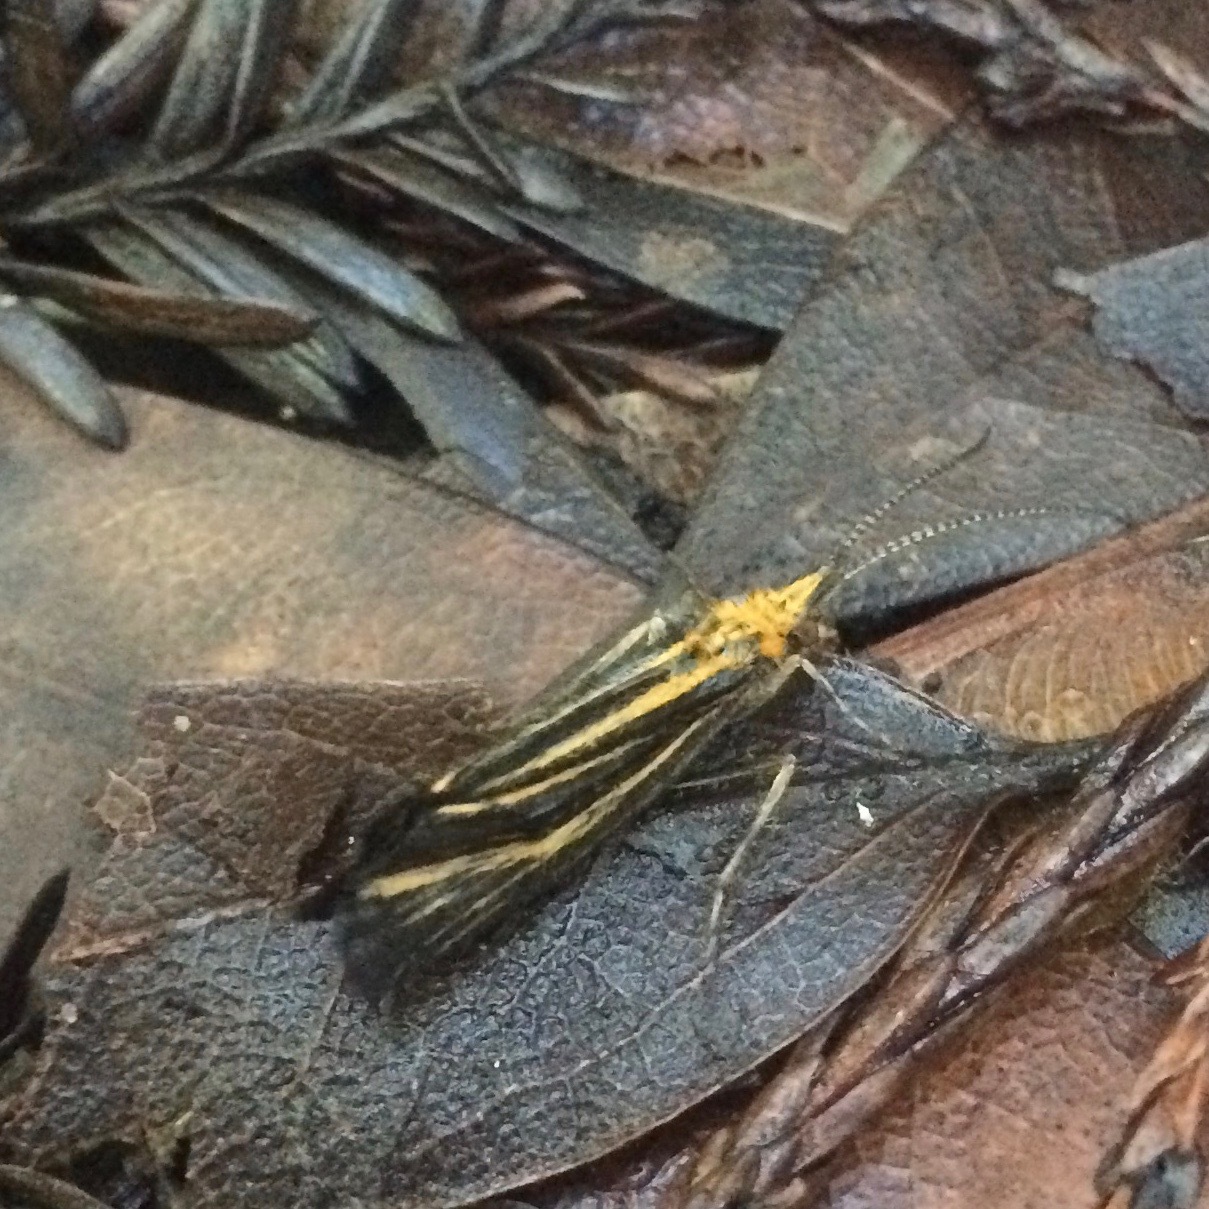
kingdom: Animalia
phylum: Arthropoda
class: Insecta
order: Trichoptera
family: Odontoceridae
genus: Nerophilus
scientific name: Nerophilus californicus
